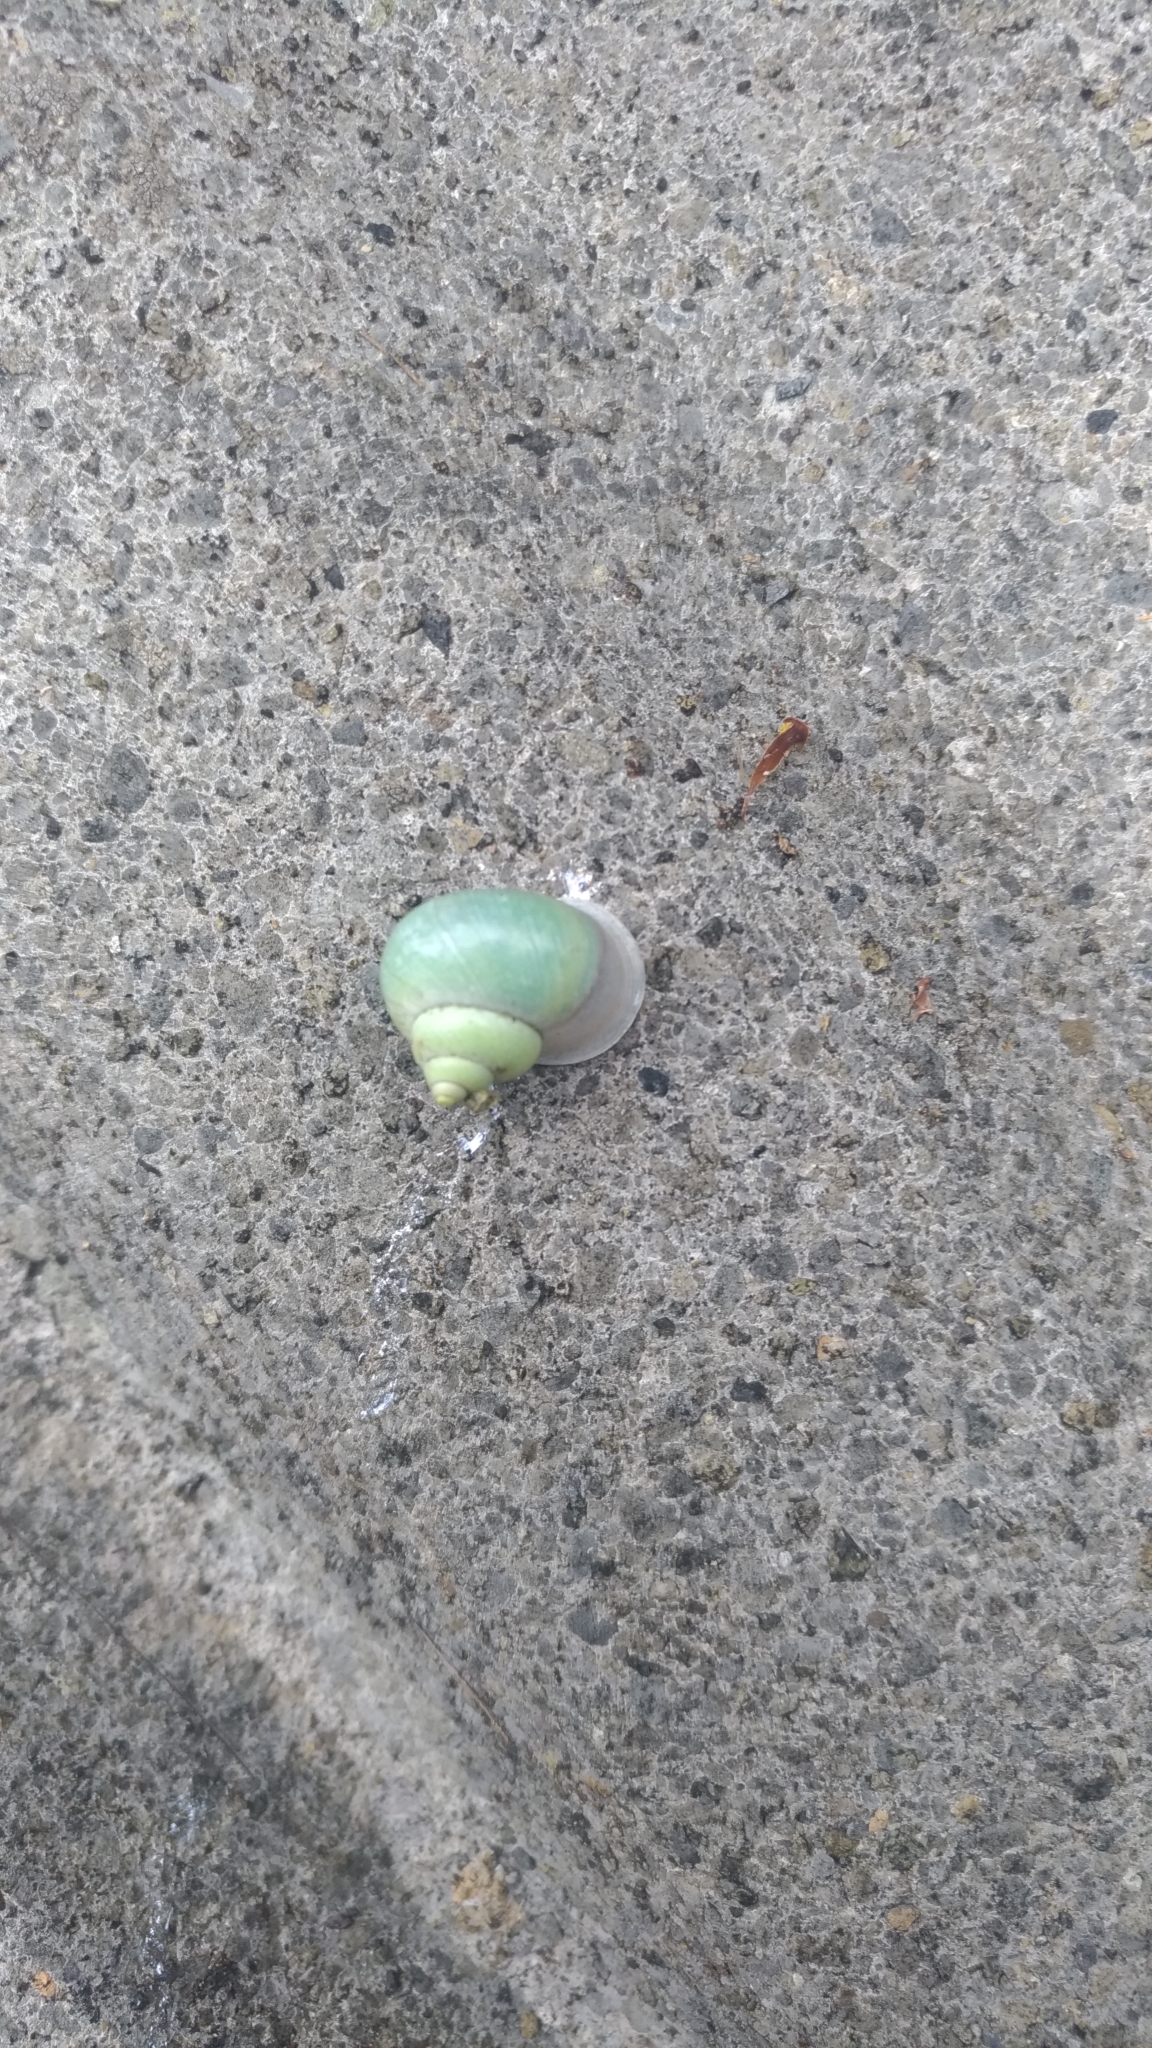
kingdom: Animalia
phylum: Mollusca
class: Gastropoda
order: Architaenioglossa
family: Cyclophoridae
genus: Leptopoma
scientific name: Leptopoma nitidum
